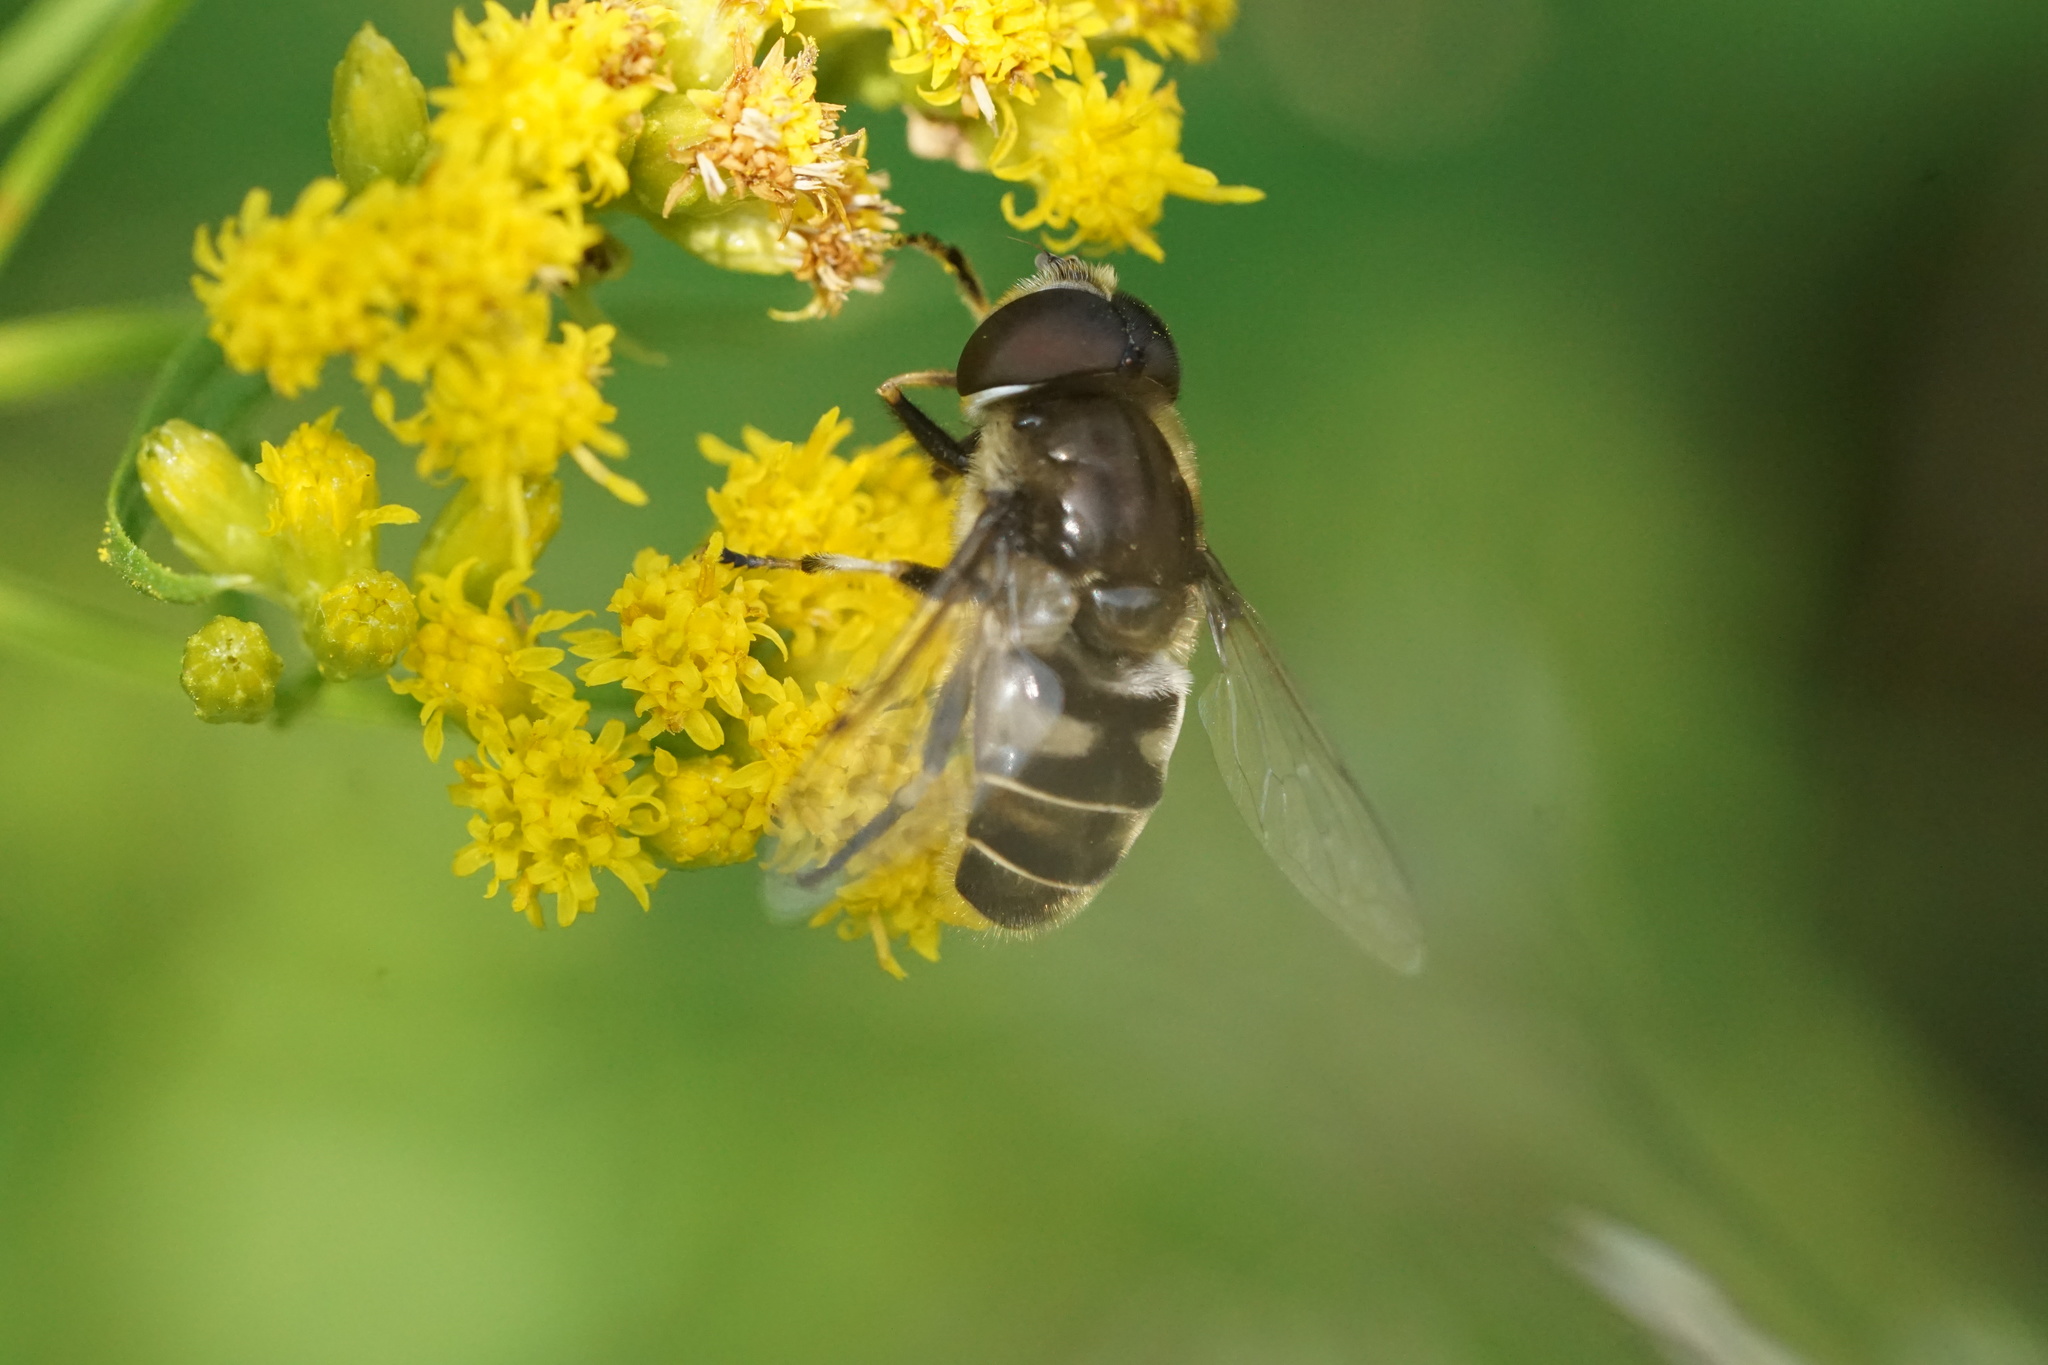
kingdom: Animalia
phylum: Arthropoda
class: Insecta
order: Diptera
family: Syrphidae
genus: Eristalis
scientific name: Eristalis dimidiata
